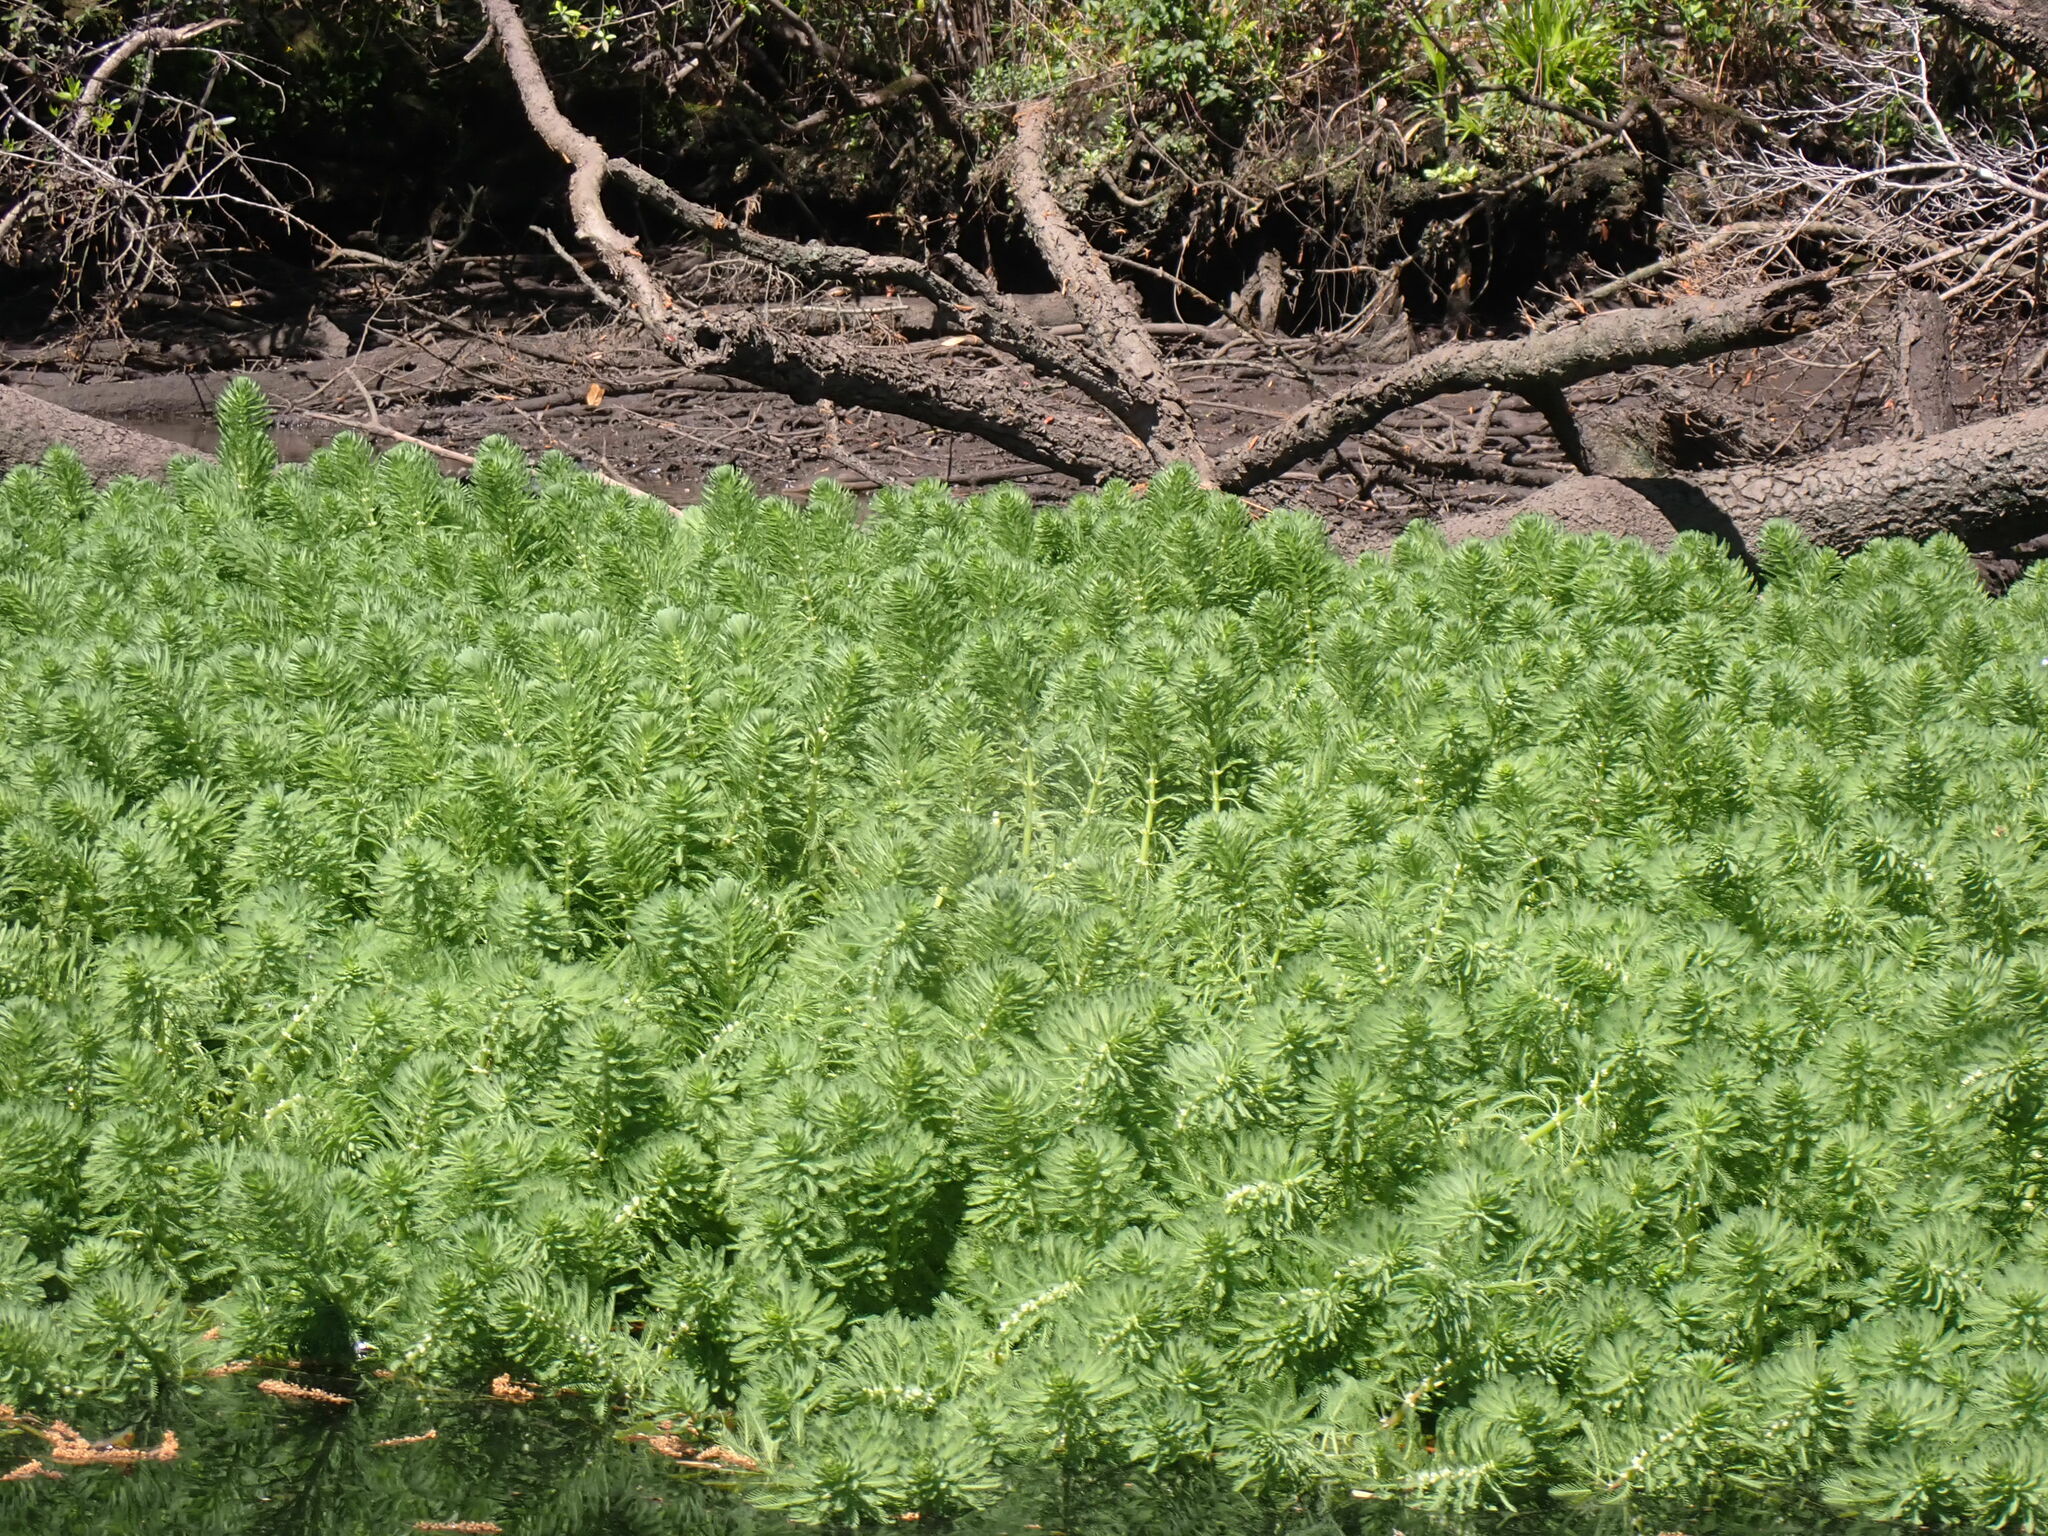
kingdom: Plantae
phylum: Tracheophyta
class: Magnoliopsida
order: Saxifragales
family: Haloragaceae
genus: Myriophyllum
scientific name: Myriophyllum aquaticum
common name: Parrot's feather
